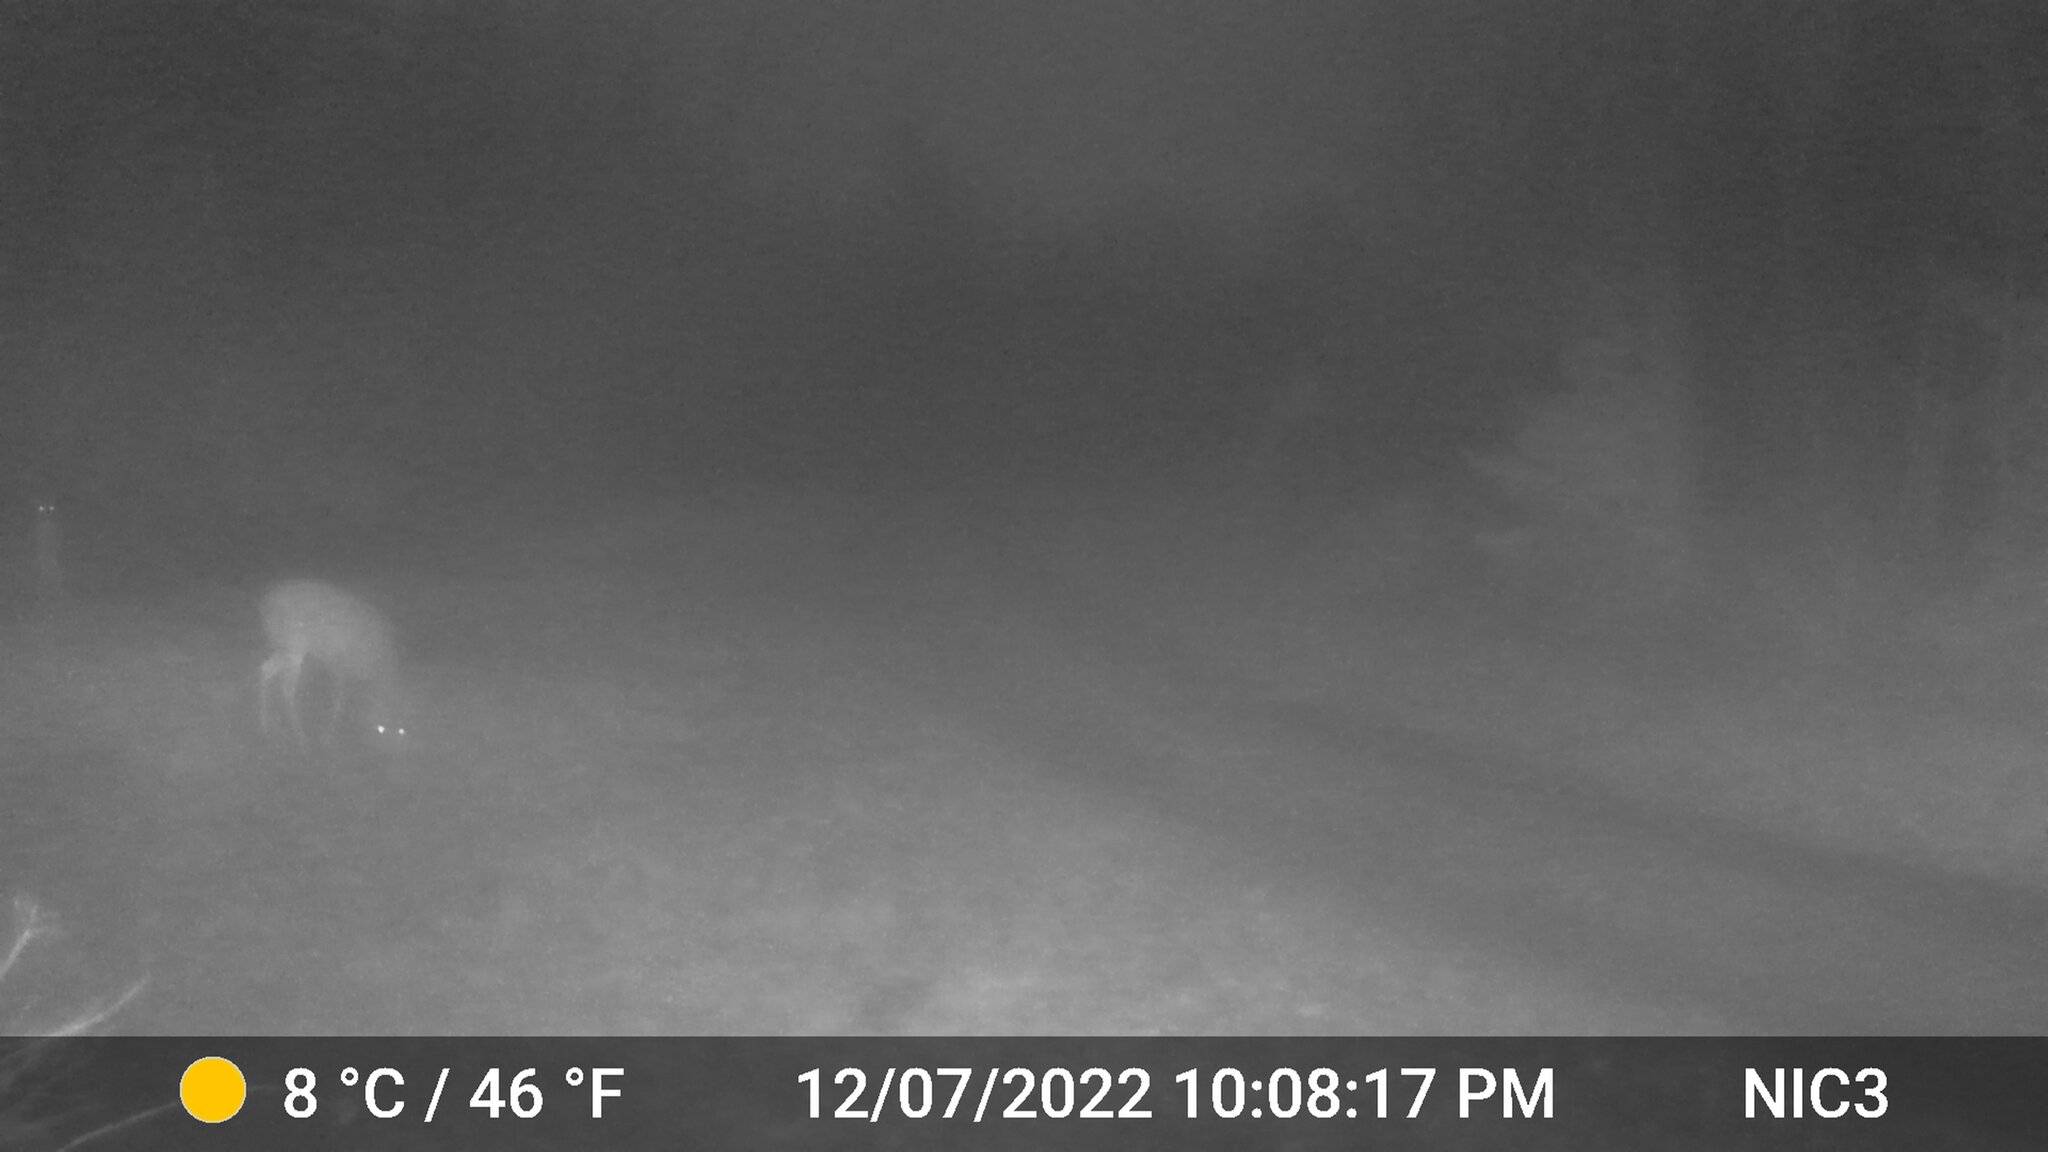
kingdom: Animalia
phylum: Chordata
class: Mammalia
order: Artiodactyla
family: Cervidae
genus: Odocoileus
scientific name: Odocoileus virginianus
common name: White-tailed deer
